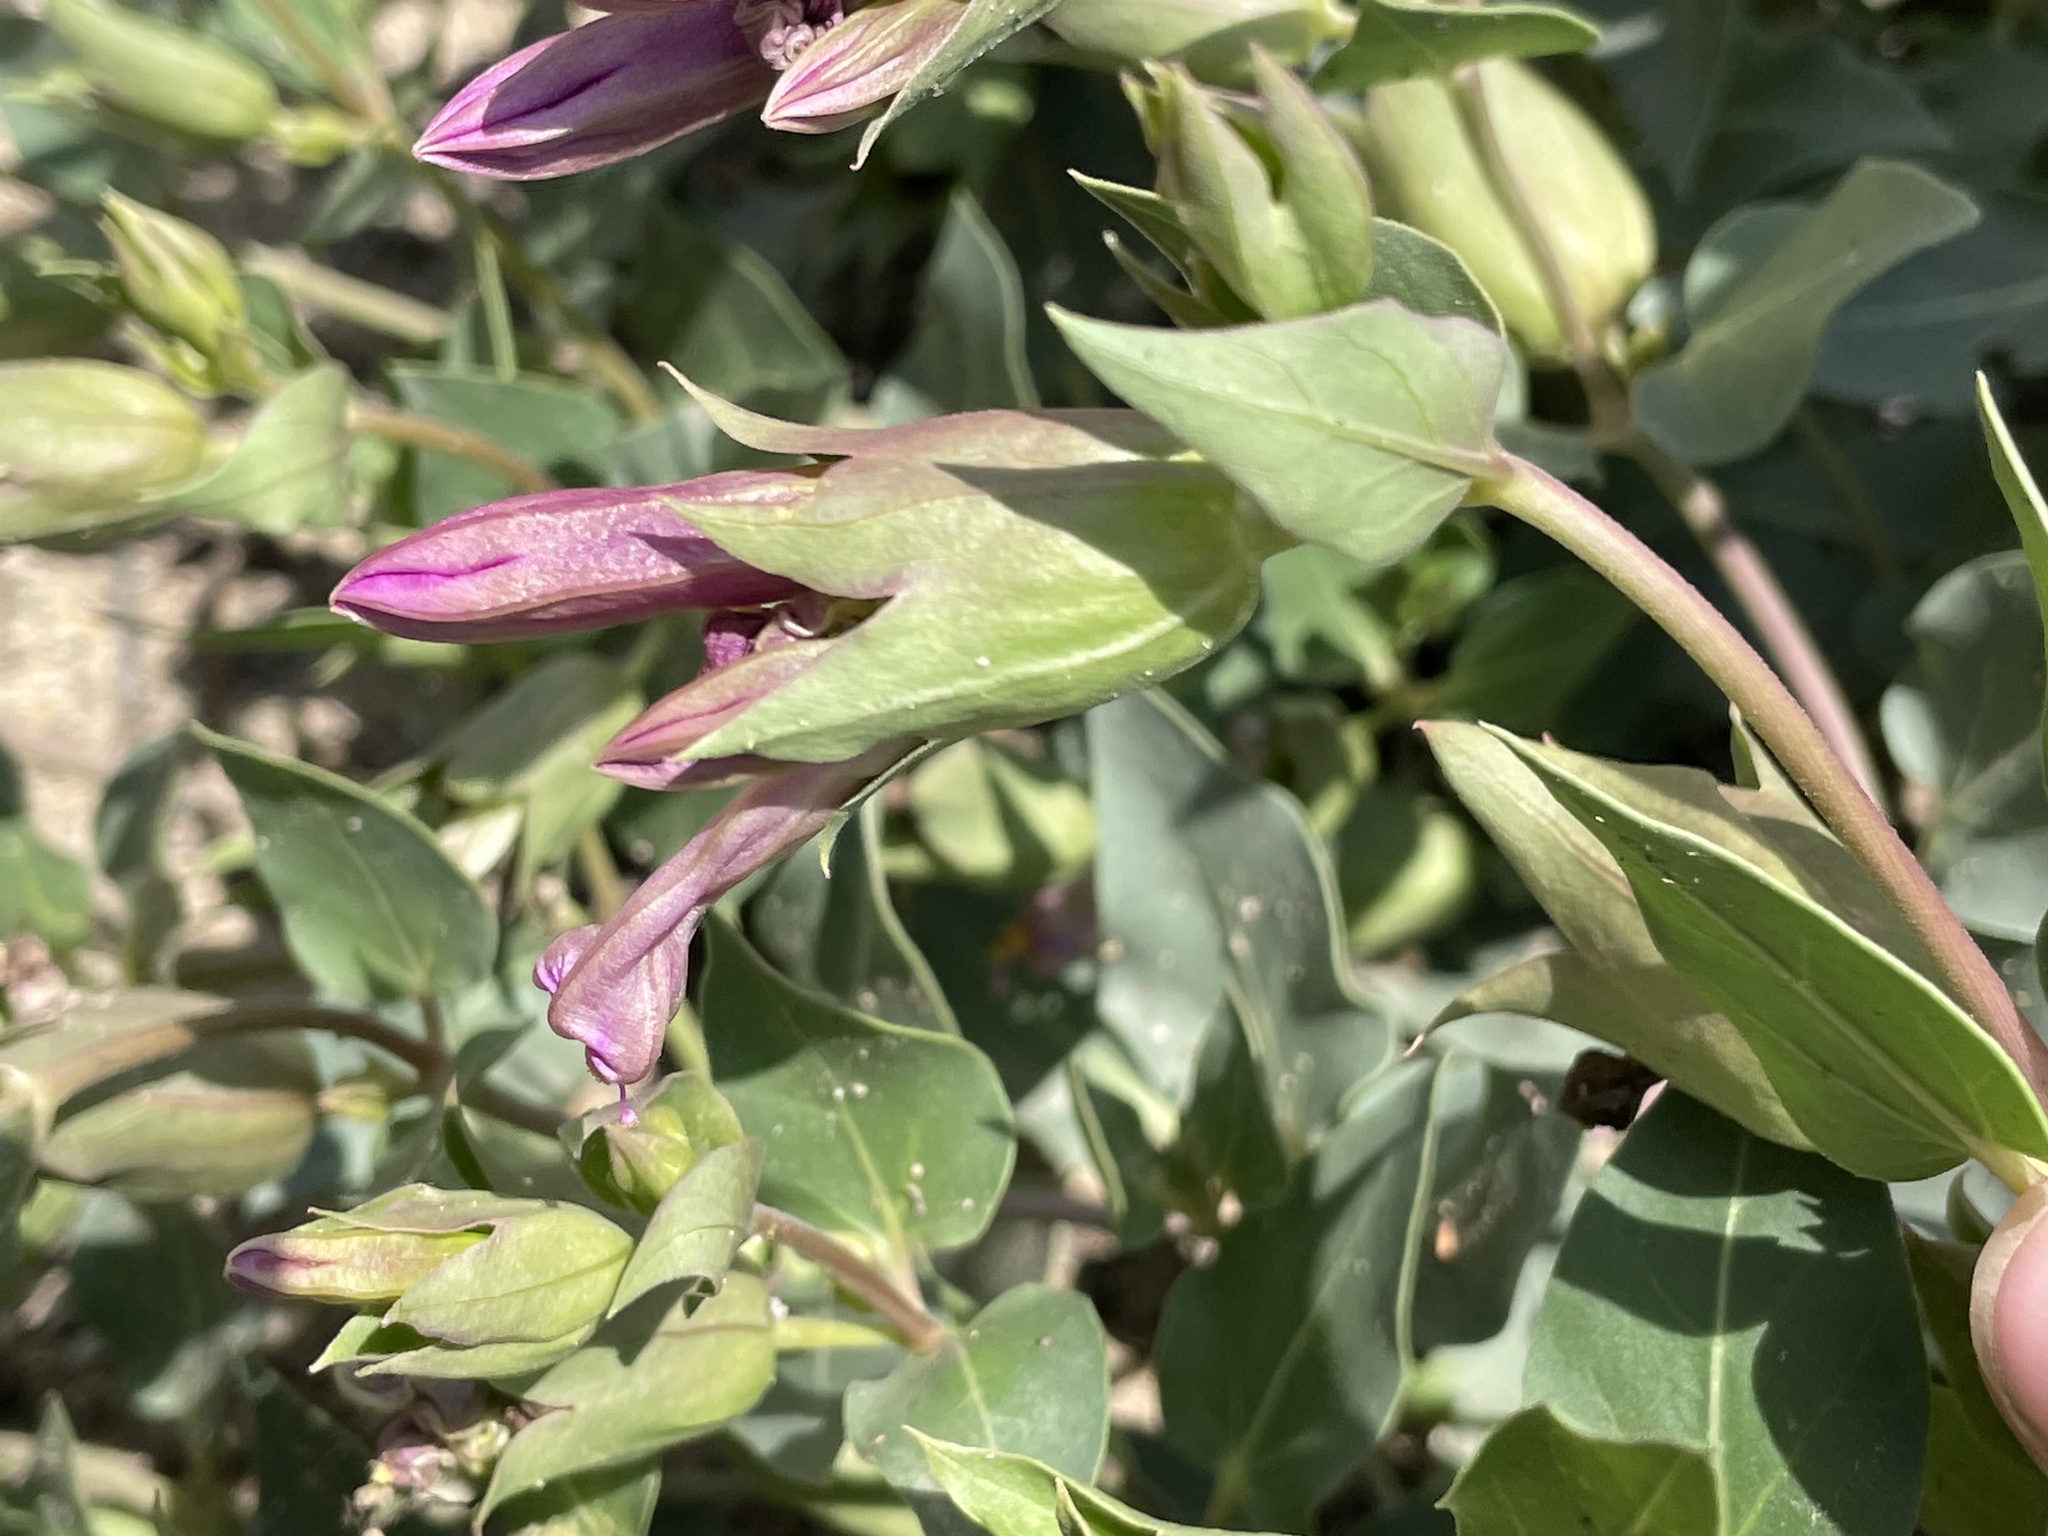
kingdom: Plantae
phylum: Tracheophyta
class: Magnoliopsida
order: Caryophyllales
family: Nyctaginaceae
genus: Mirabilis
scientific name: Mirabilis multiflora
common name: Froebel's four-o'clock
